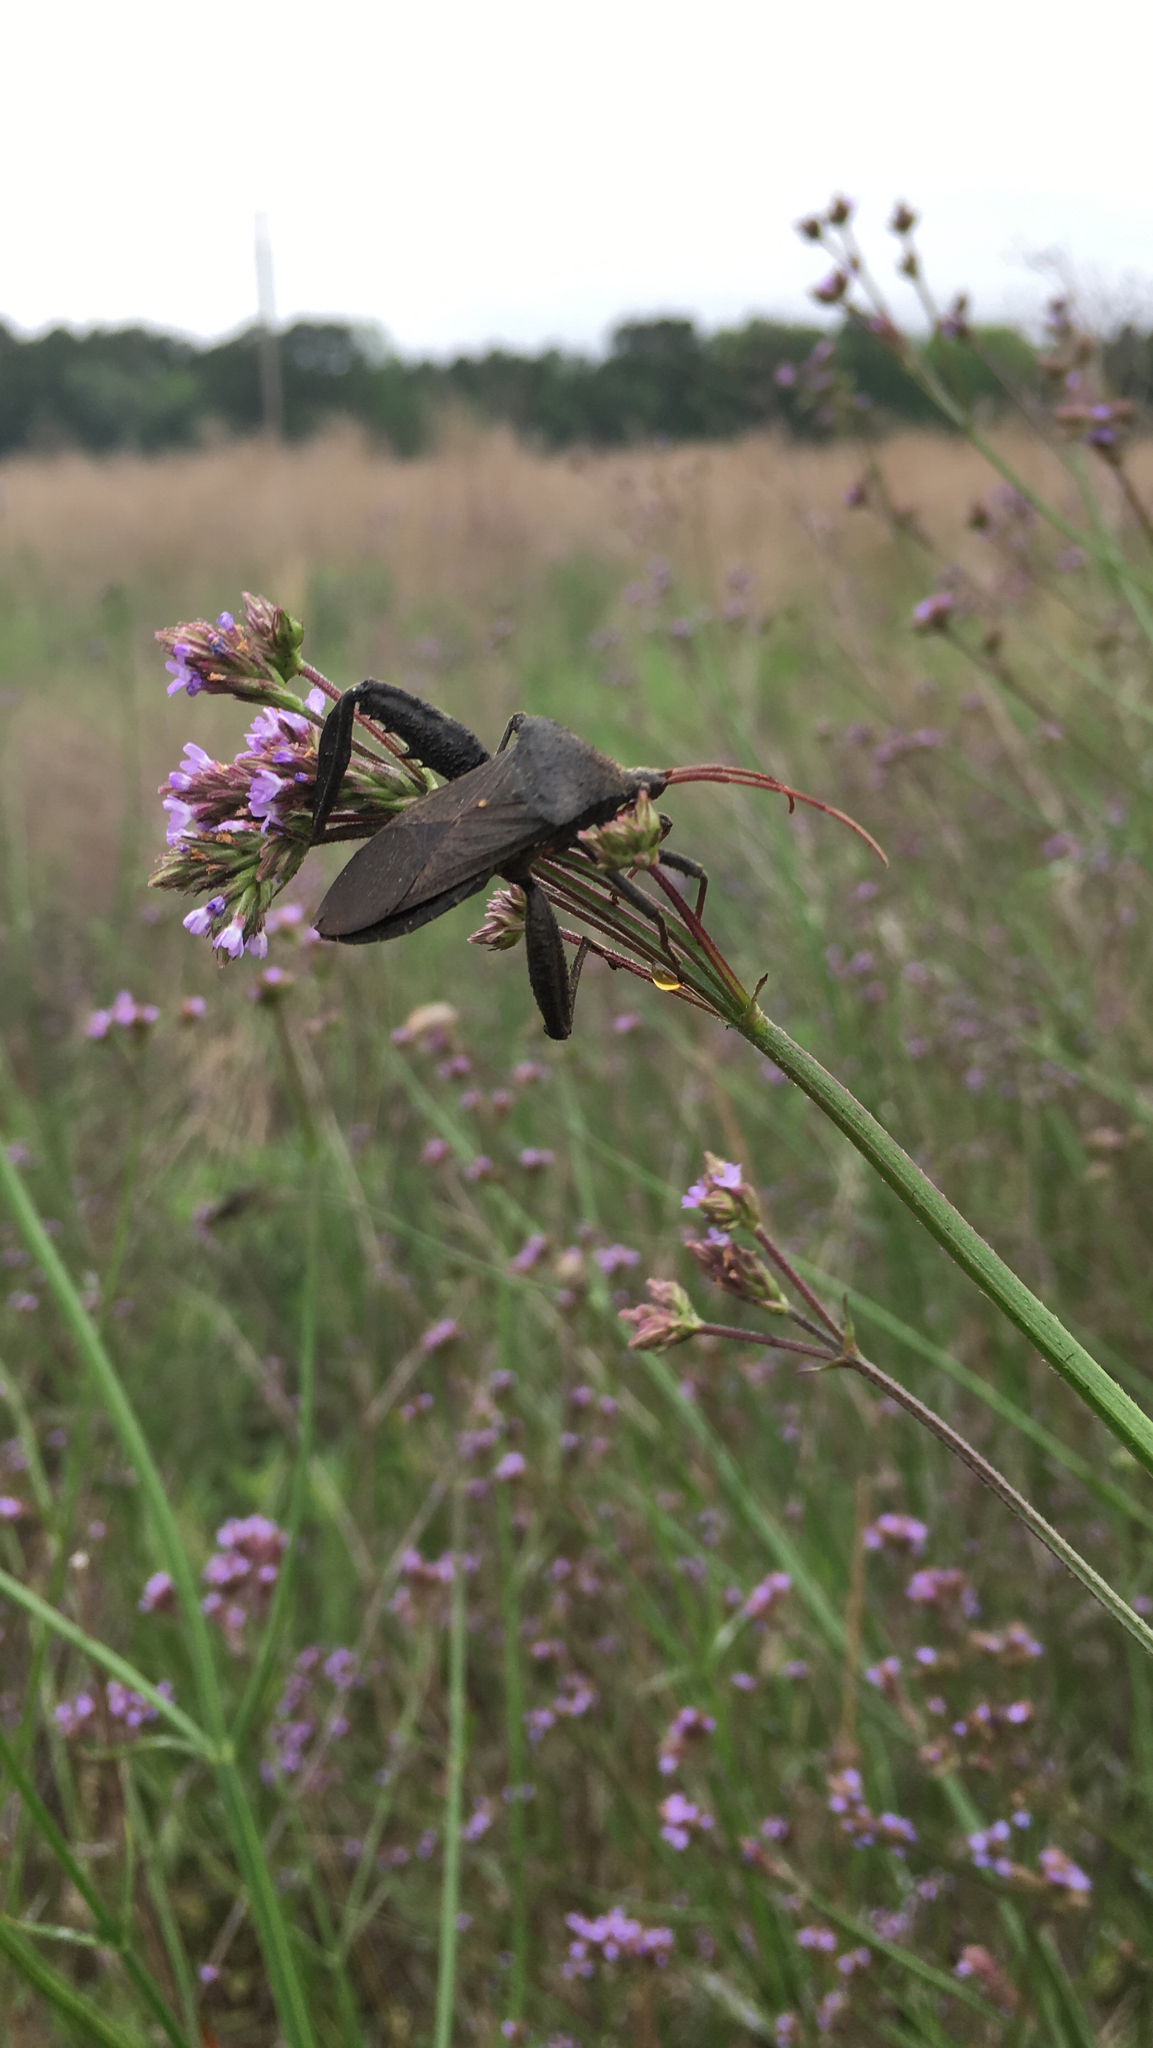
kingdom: Animalia
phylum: Arthropoda
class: Insecta
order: Hemiptera
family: Coreidae
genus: Acanthocephala
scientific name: Acanthocephala femorata
